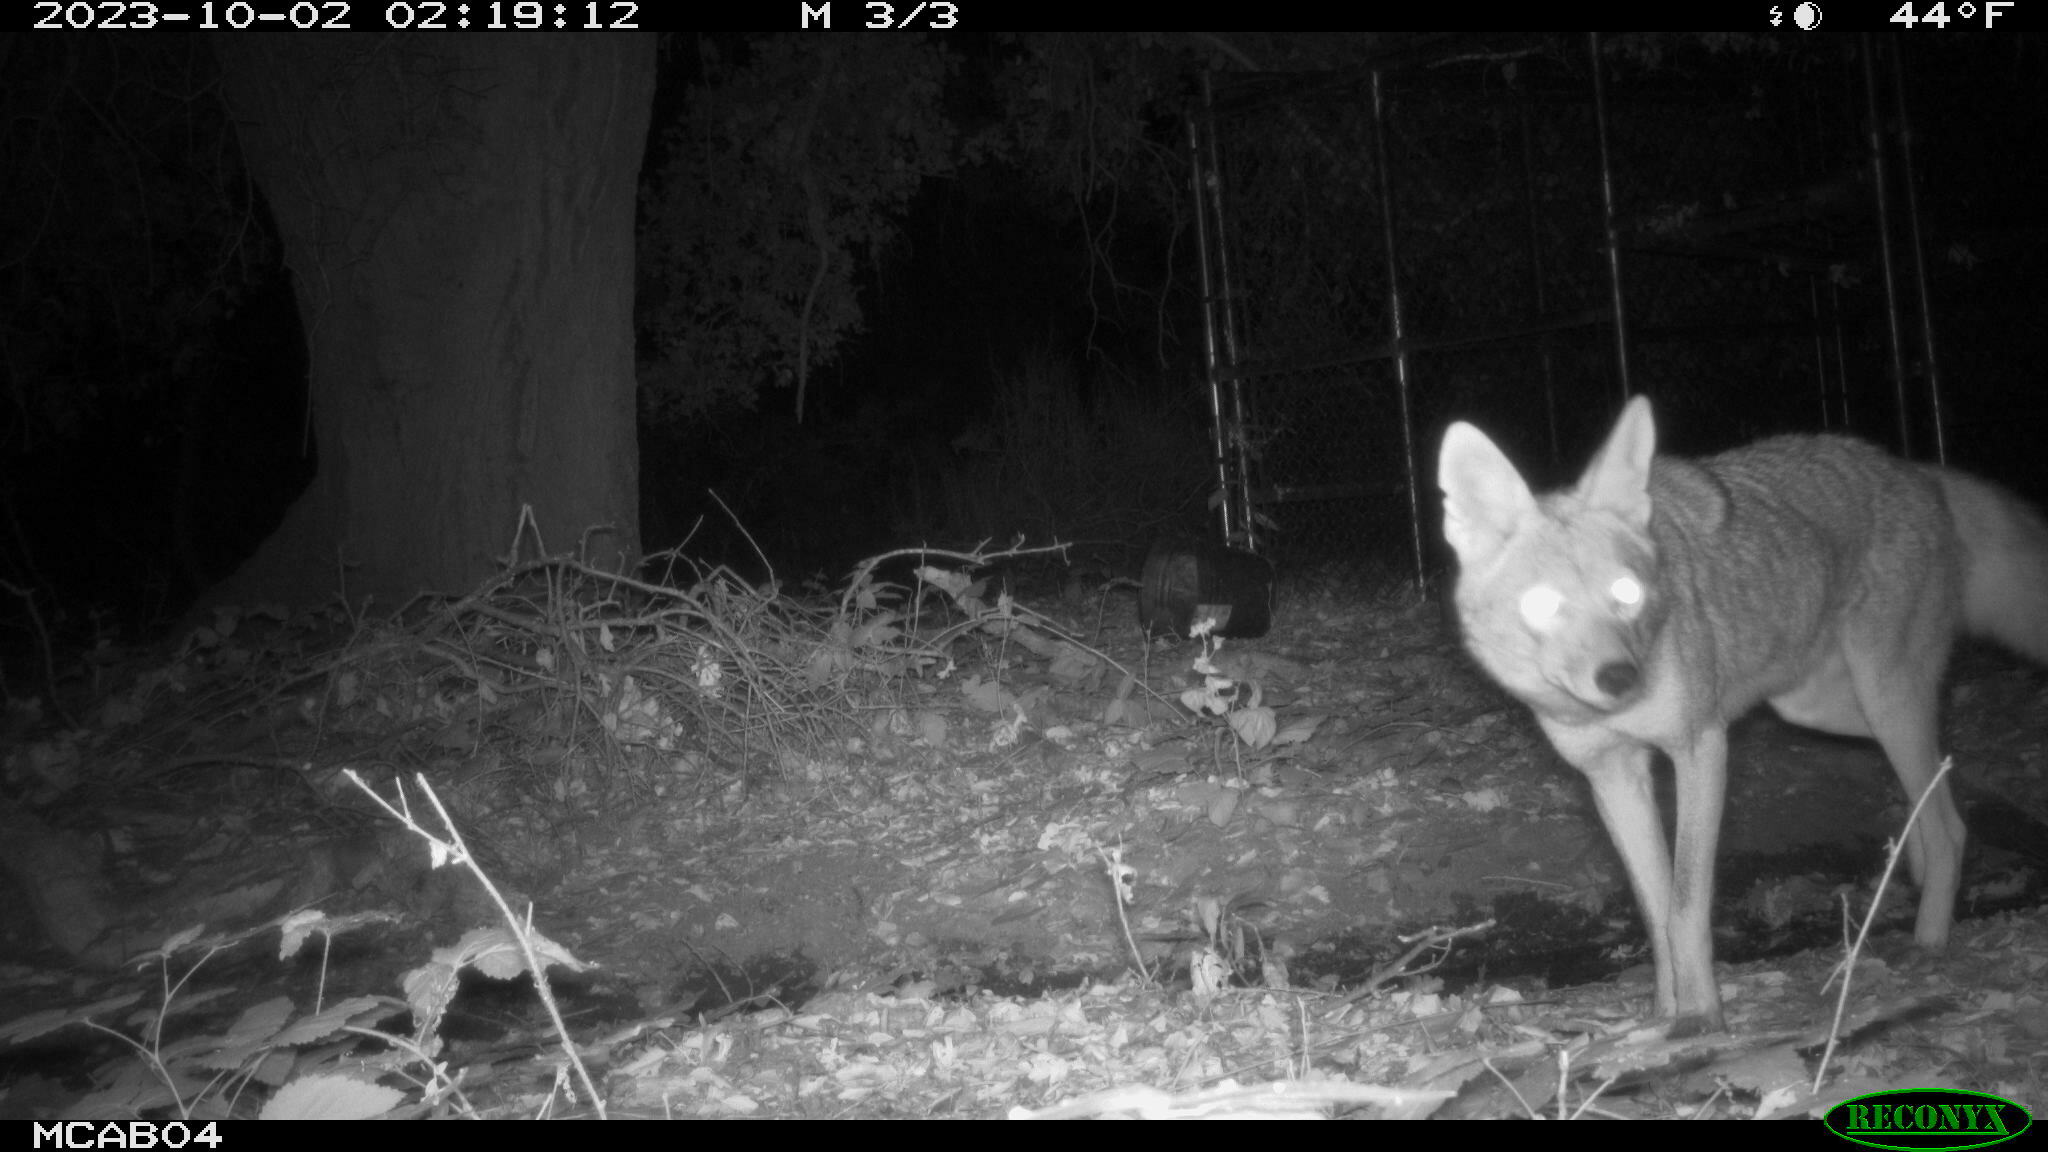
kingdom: Animalia
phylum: Chordata
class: Mammalia
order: Carnivora
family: Canidae
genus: Canis
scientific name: Canis latrans
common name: Coyote
